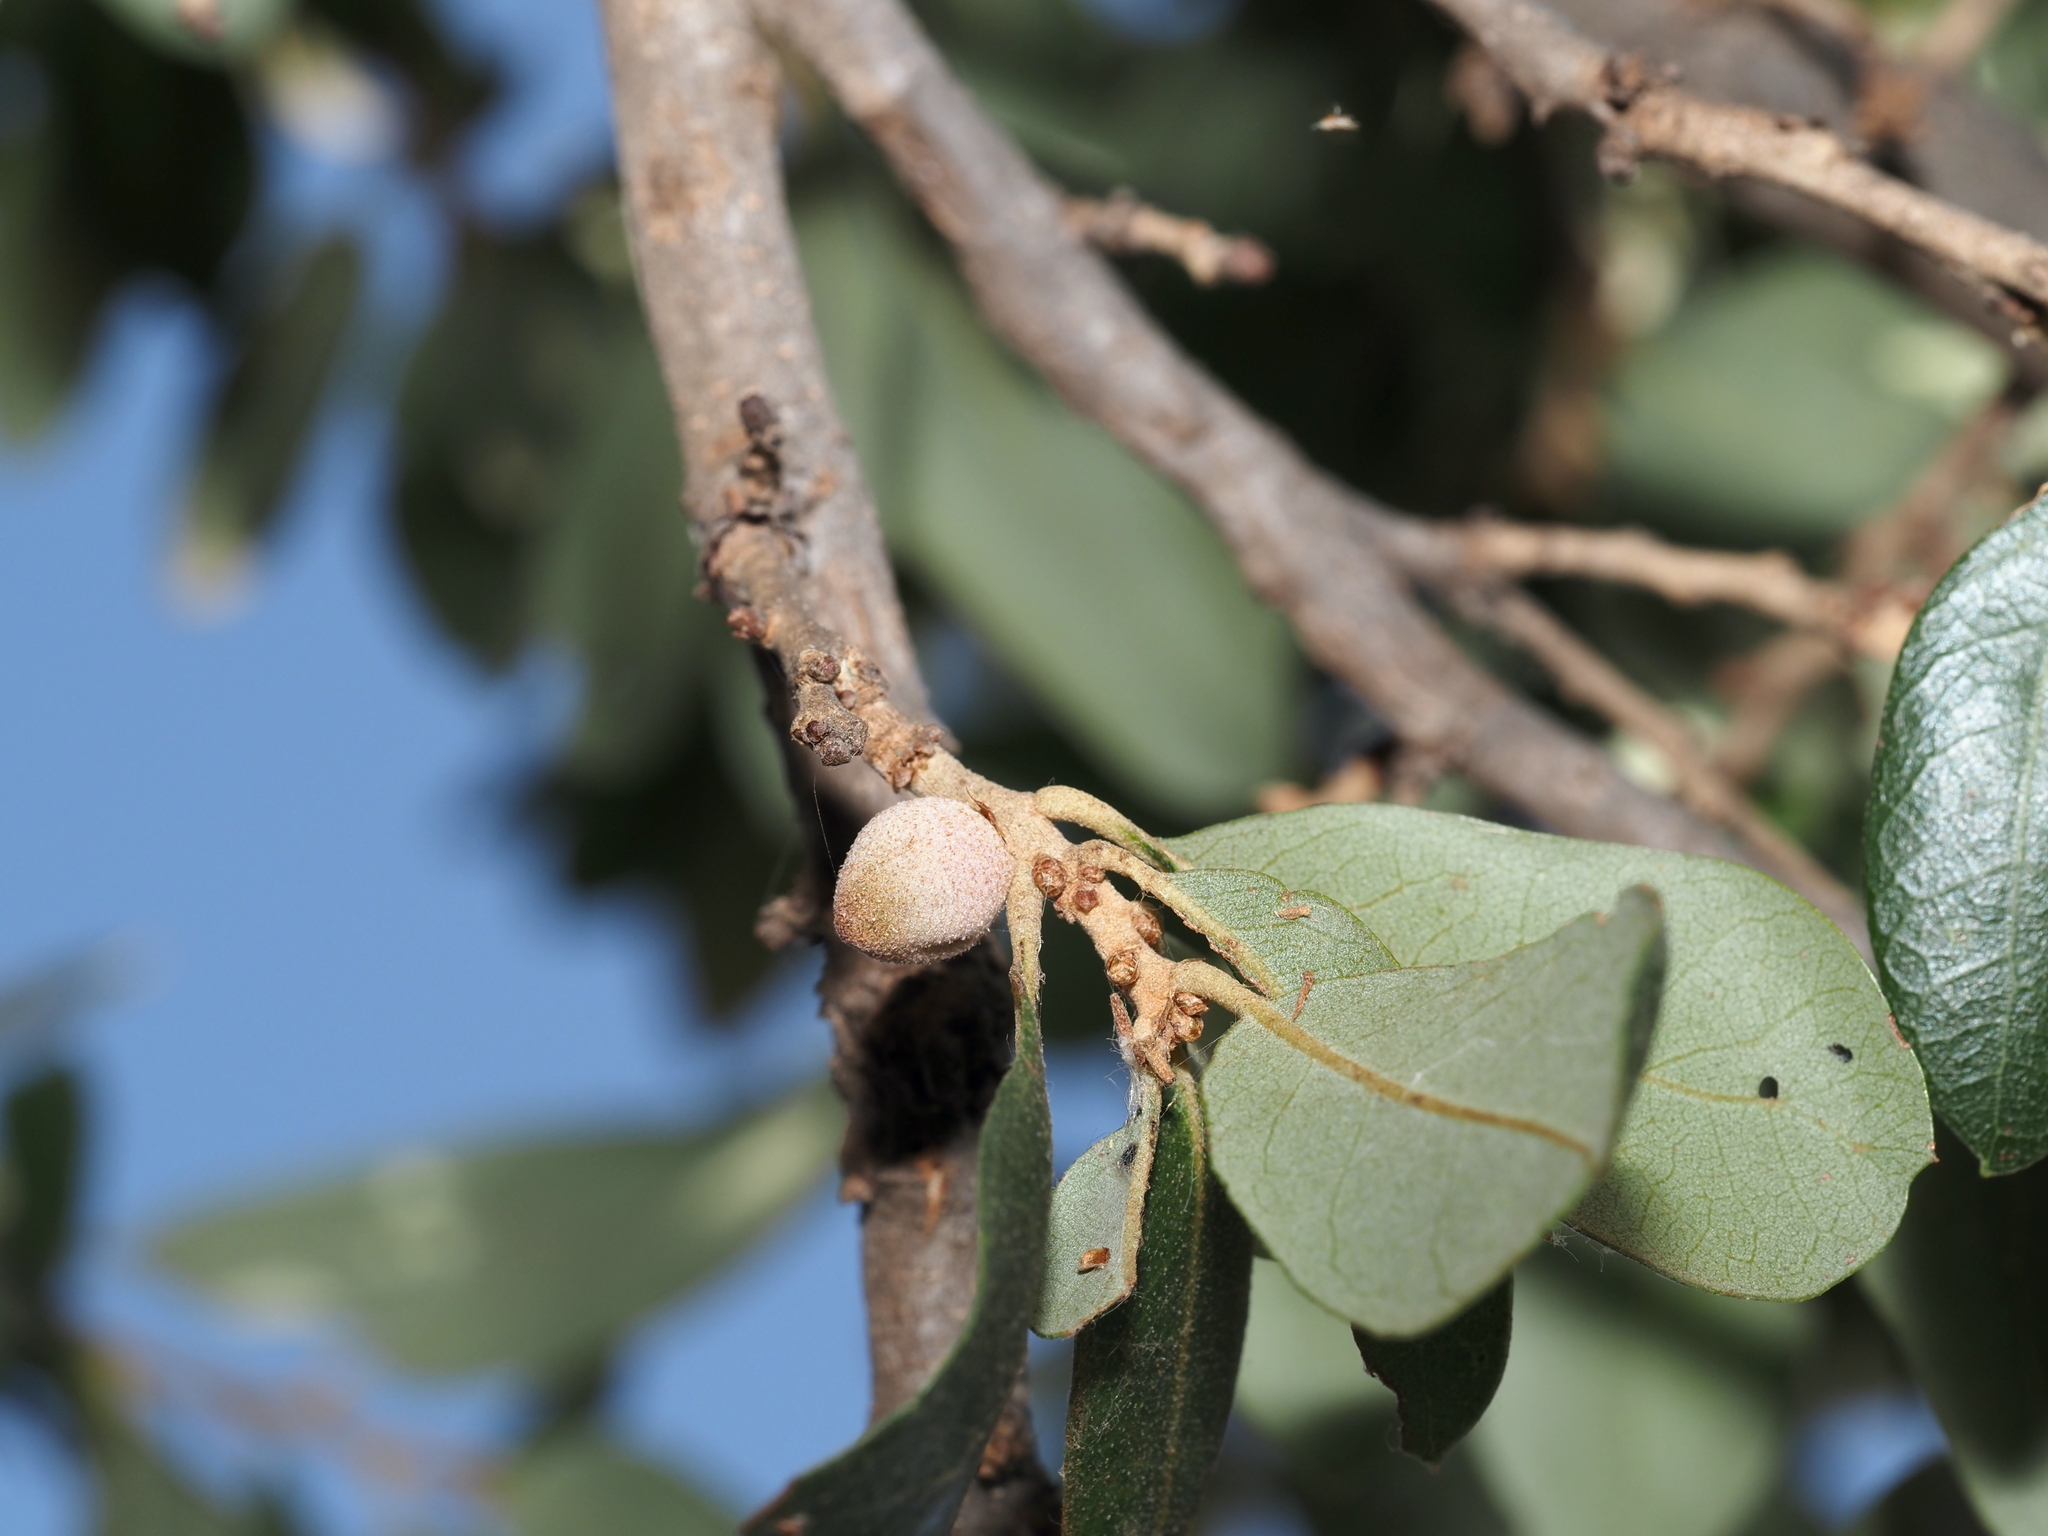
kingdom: Animalia
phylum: Arthropoda
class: Insecta
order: Hymenoptera
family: Cynipidae
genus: Disholcaspis
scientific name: Disholcaspis
